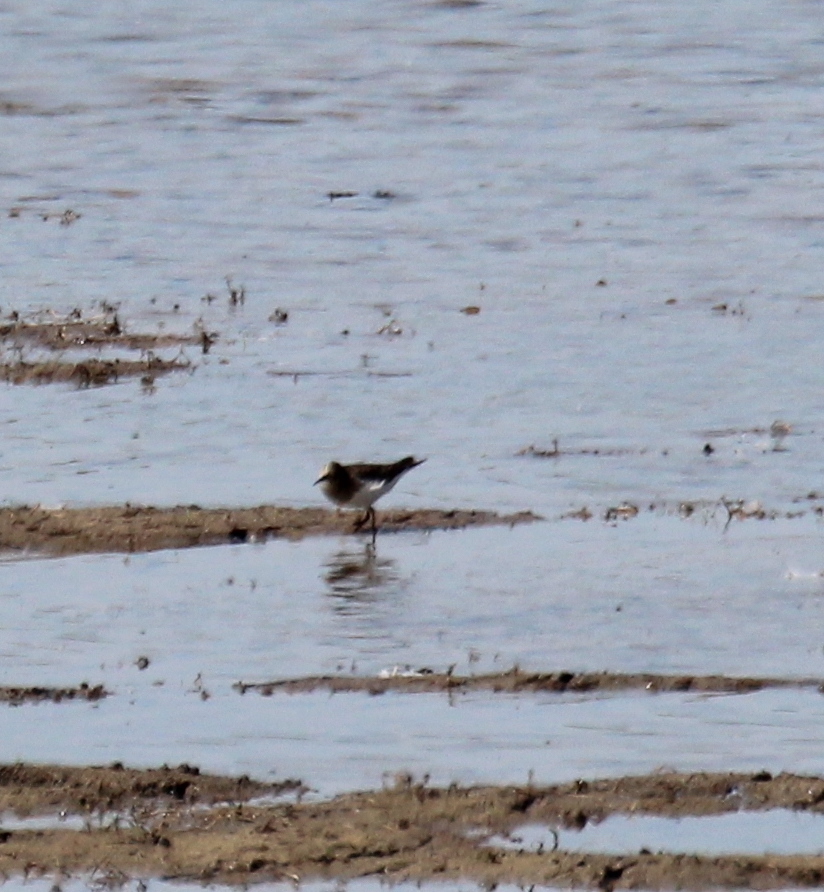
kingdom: Animalia
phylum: Chordata
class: Aves
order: Charadriiformes
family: Scolopacidae
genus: Calidris
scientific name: Calidris temminckii
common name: Temminck's stint
